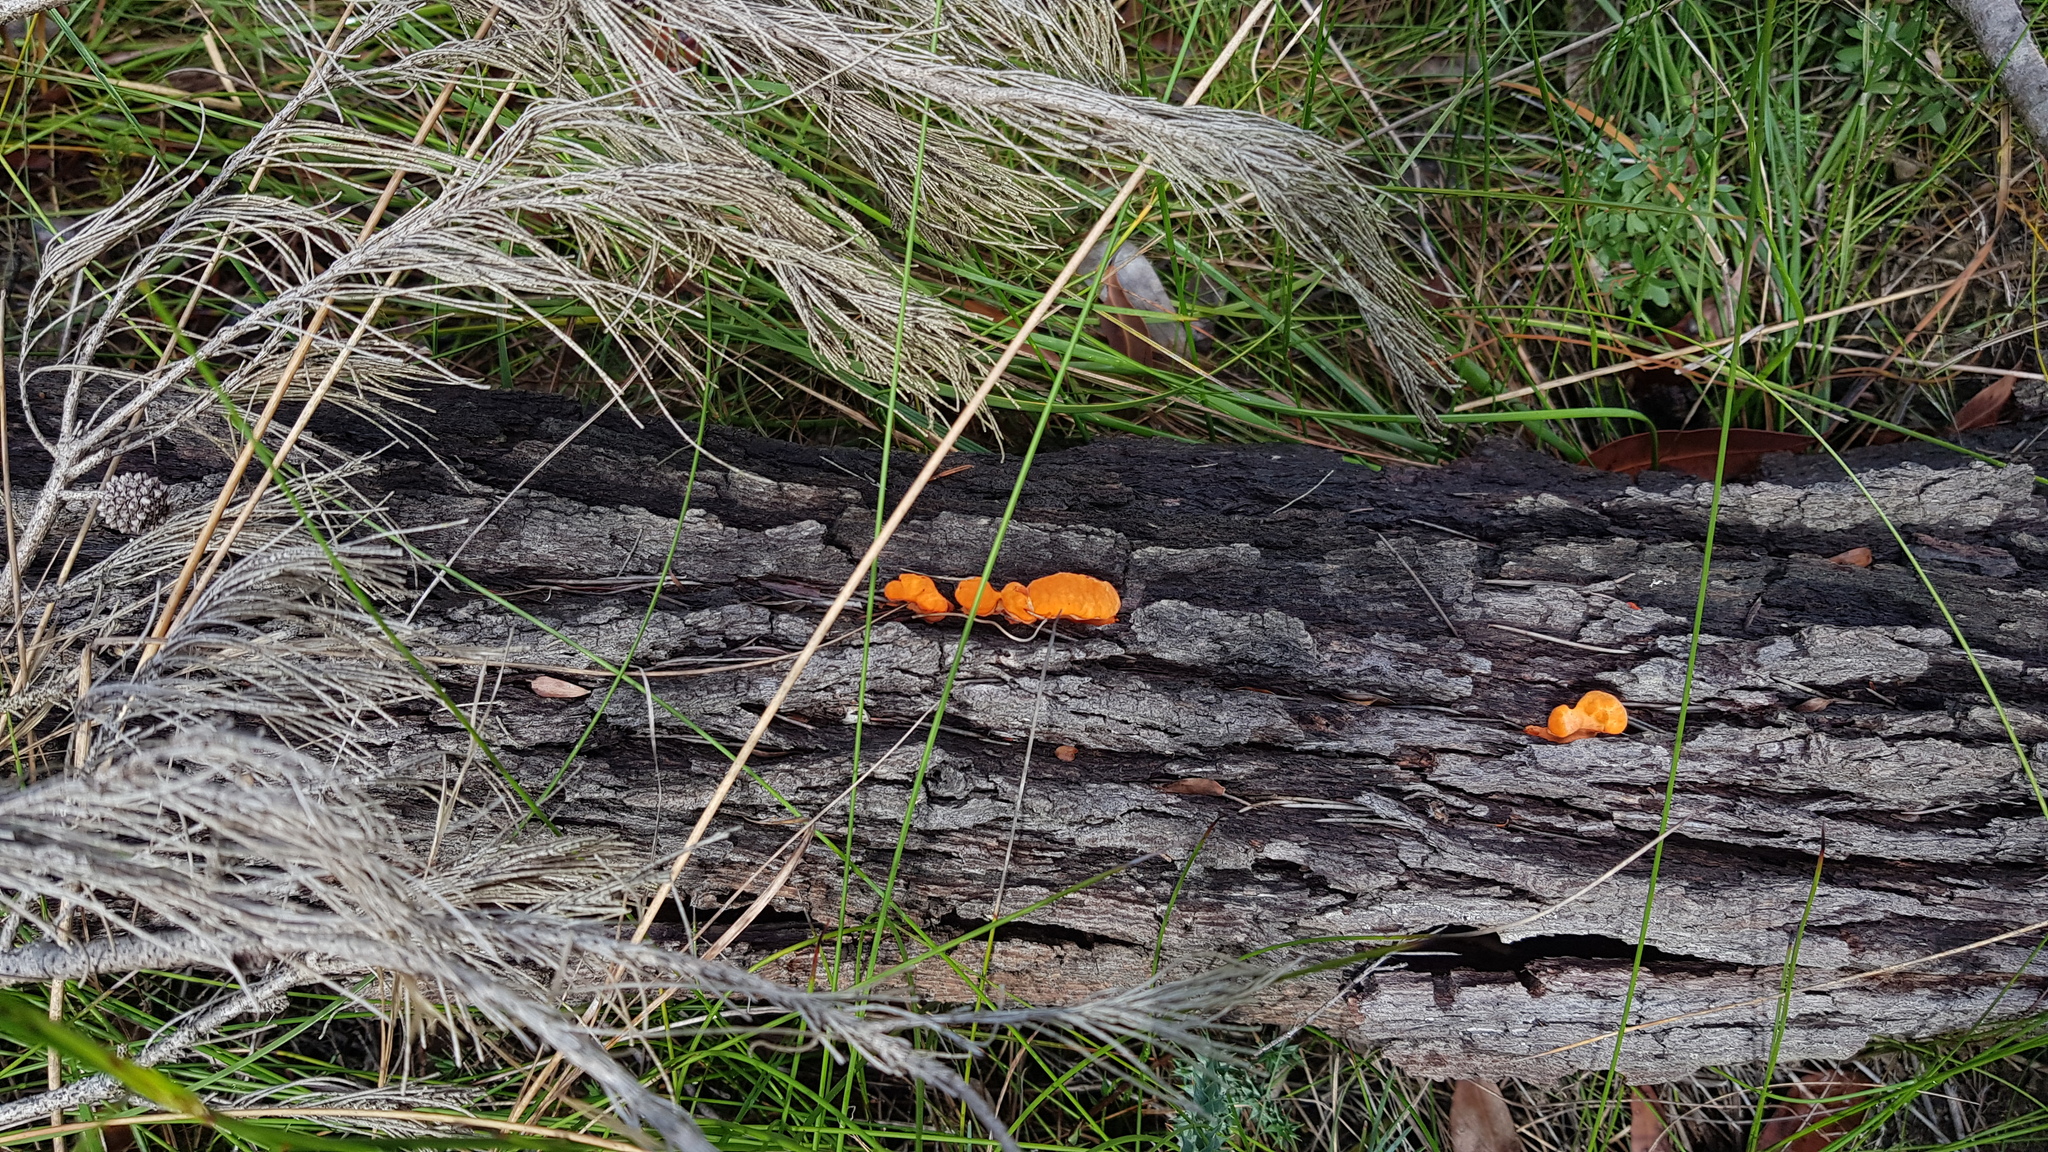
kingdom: Fungi
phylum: Basidiomycota
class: Agaricomycetes
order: Polyporales
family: Polyporaceae
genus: Trametes
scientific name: Trametes coccinea
